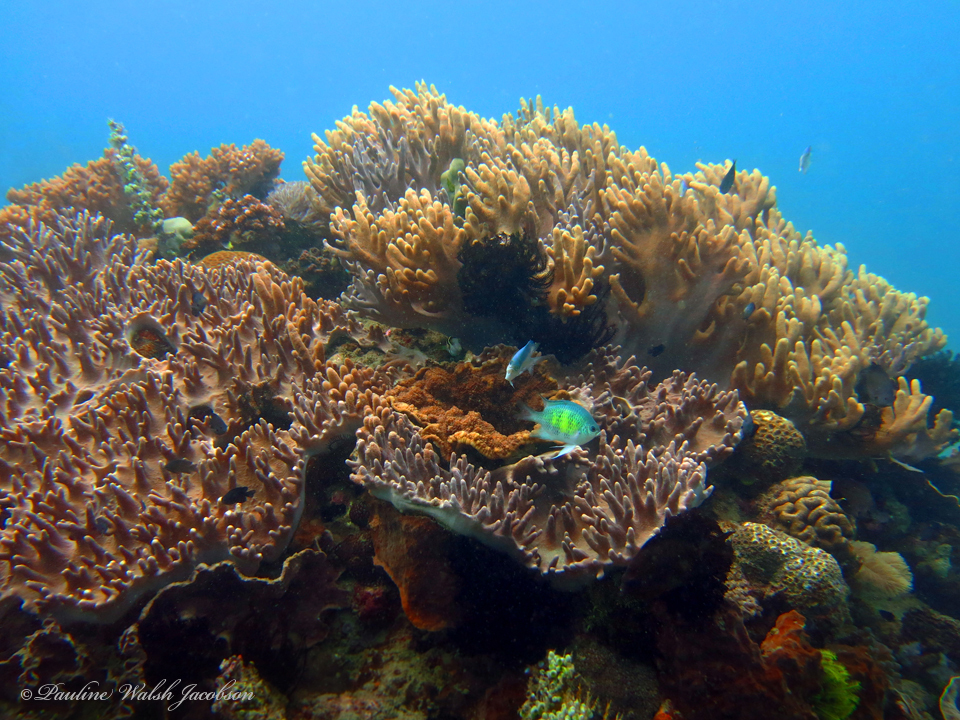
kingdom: Animalia
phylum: Chordata
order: Perciformes
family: Pomacentridae
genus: Amblyglyphidodon
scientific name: Amblyglyphidodon curacao
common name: Staghorn damsel
